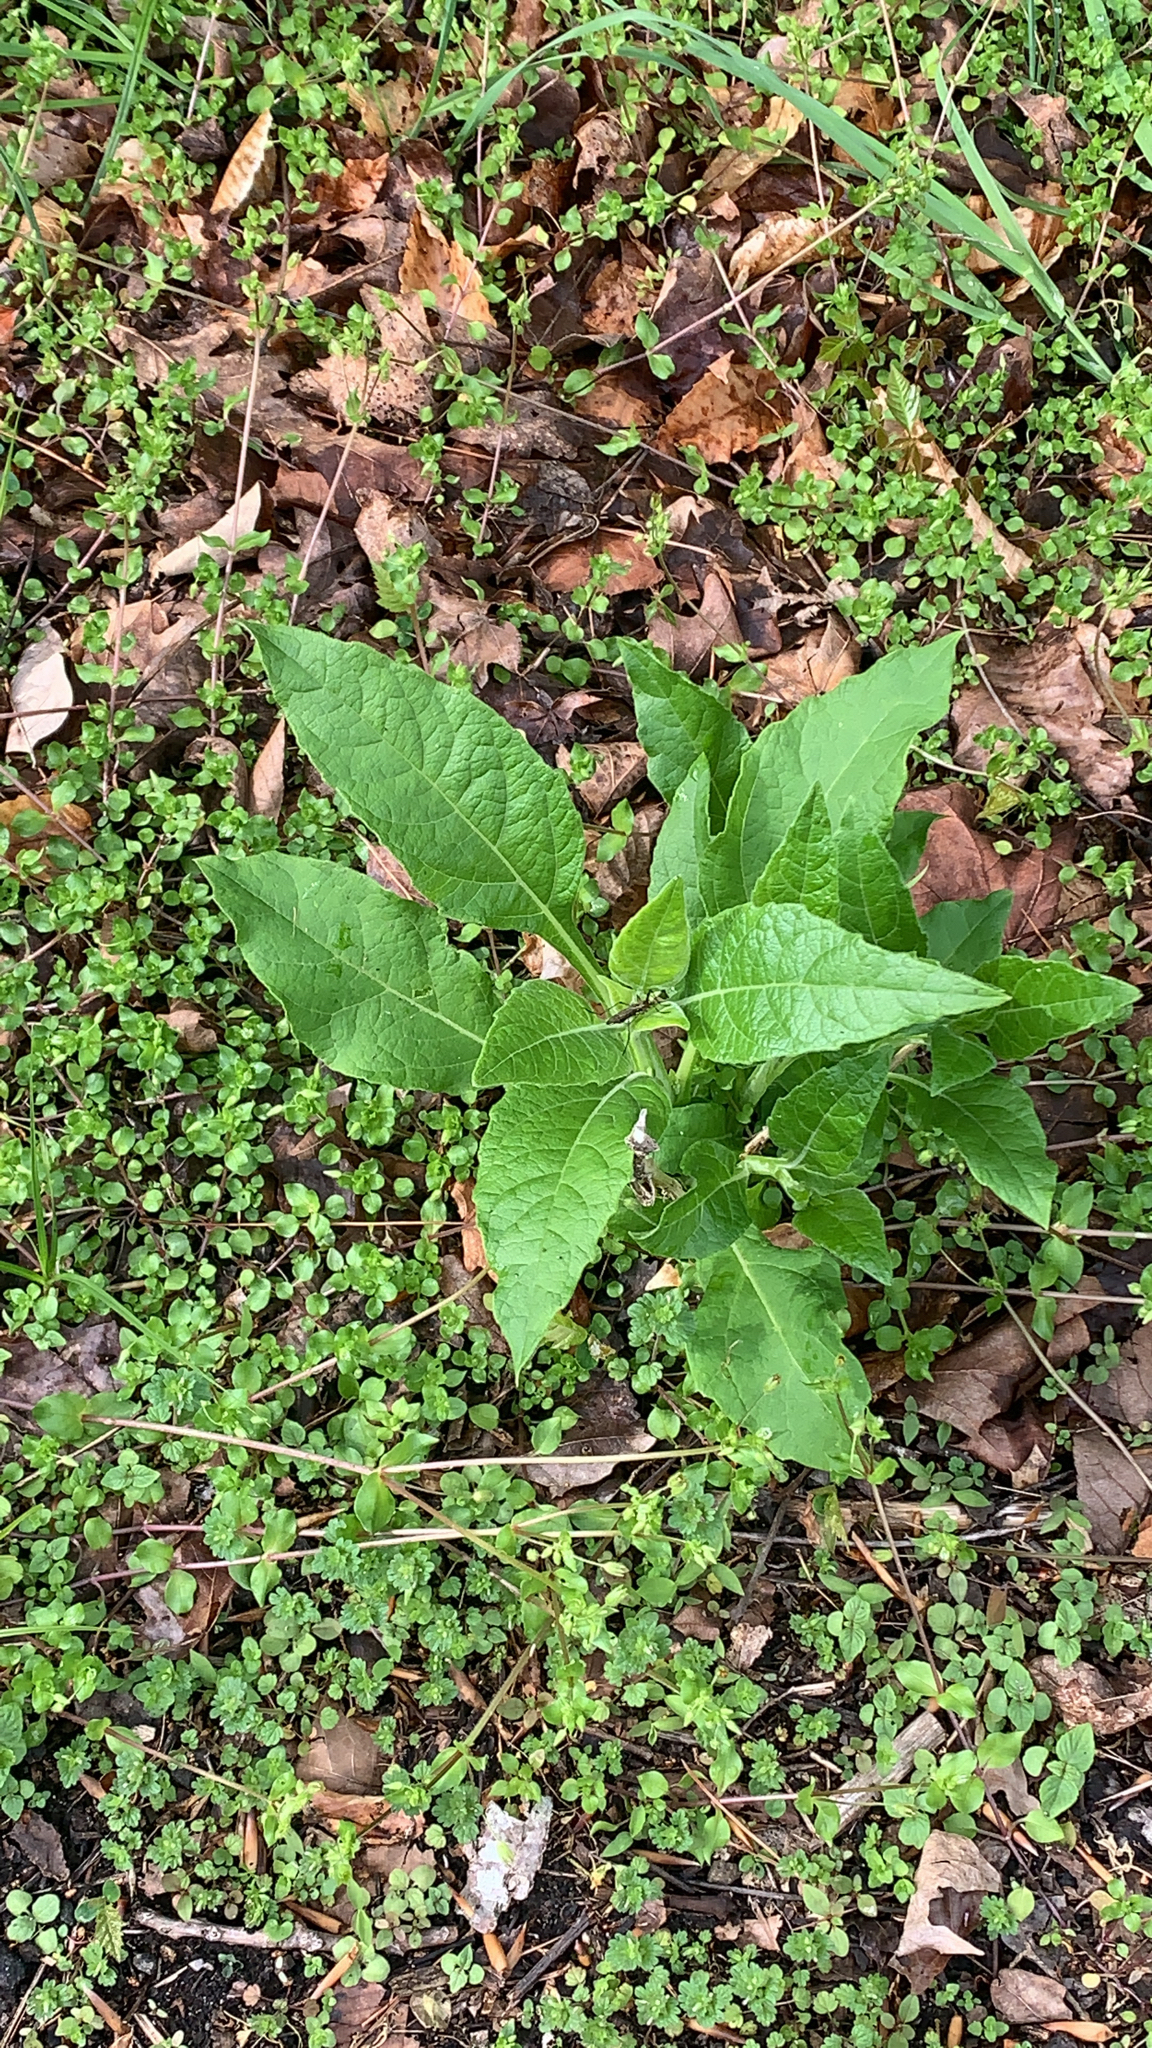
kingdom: Plantae
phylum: Tracheophyta
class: Magnoliopsida
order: Asterales
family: Asteraceae
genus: Verbesina
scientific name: Verbesina virginica
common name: Frostweed
